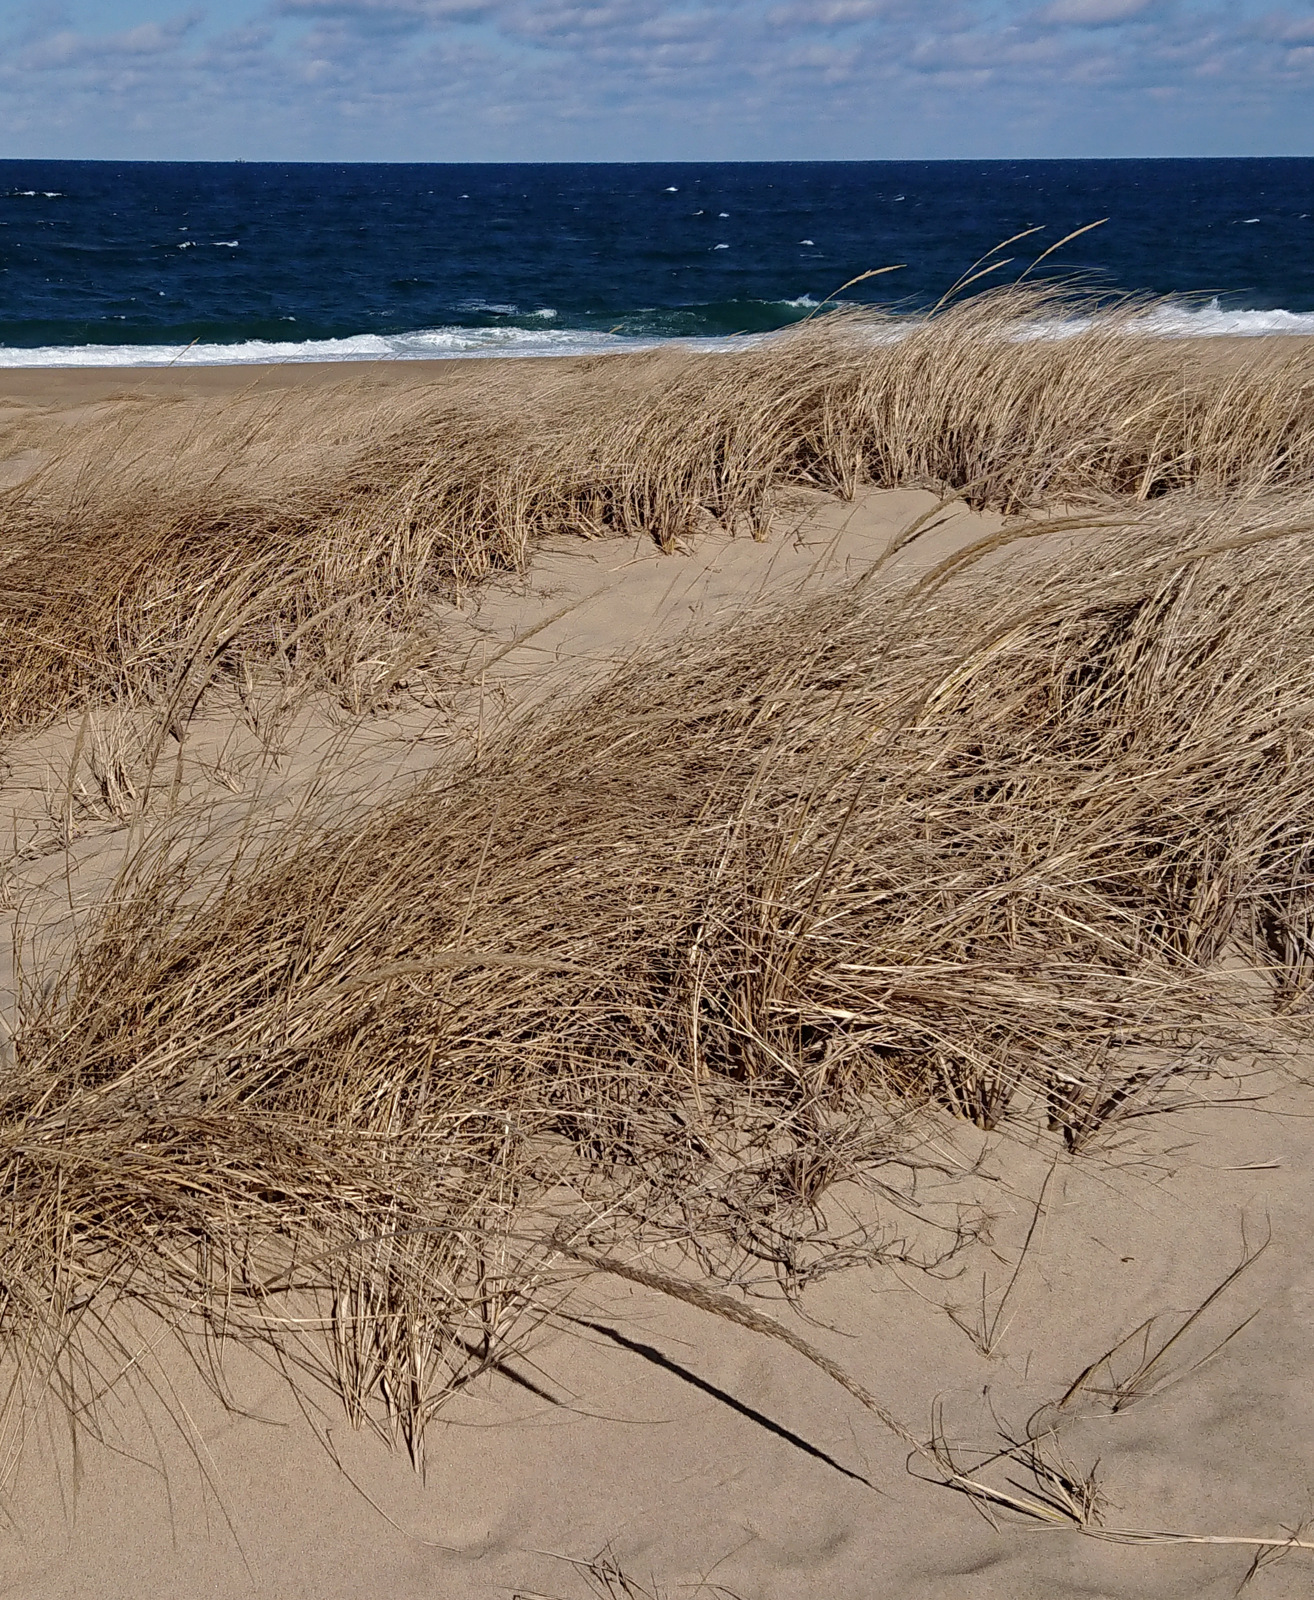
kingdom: Plantae
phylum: Tracheophyta
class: Liliopsida
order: Poales
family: Poaceae
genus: Calamagrostis
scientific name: Calamagrostis breviligulata
